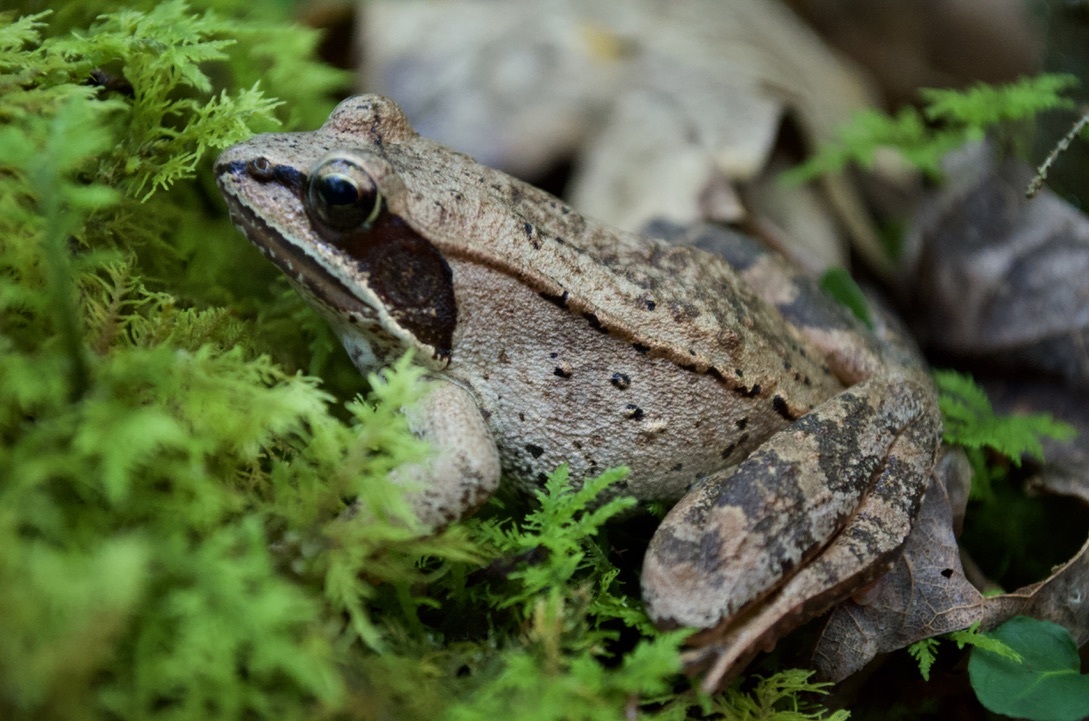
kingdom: Animalia
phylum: Chordata
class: Amphibia
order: Anura
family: Ranidae
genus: Lithobates
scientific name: Lithobates sylvaticus
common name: Wood frog
